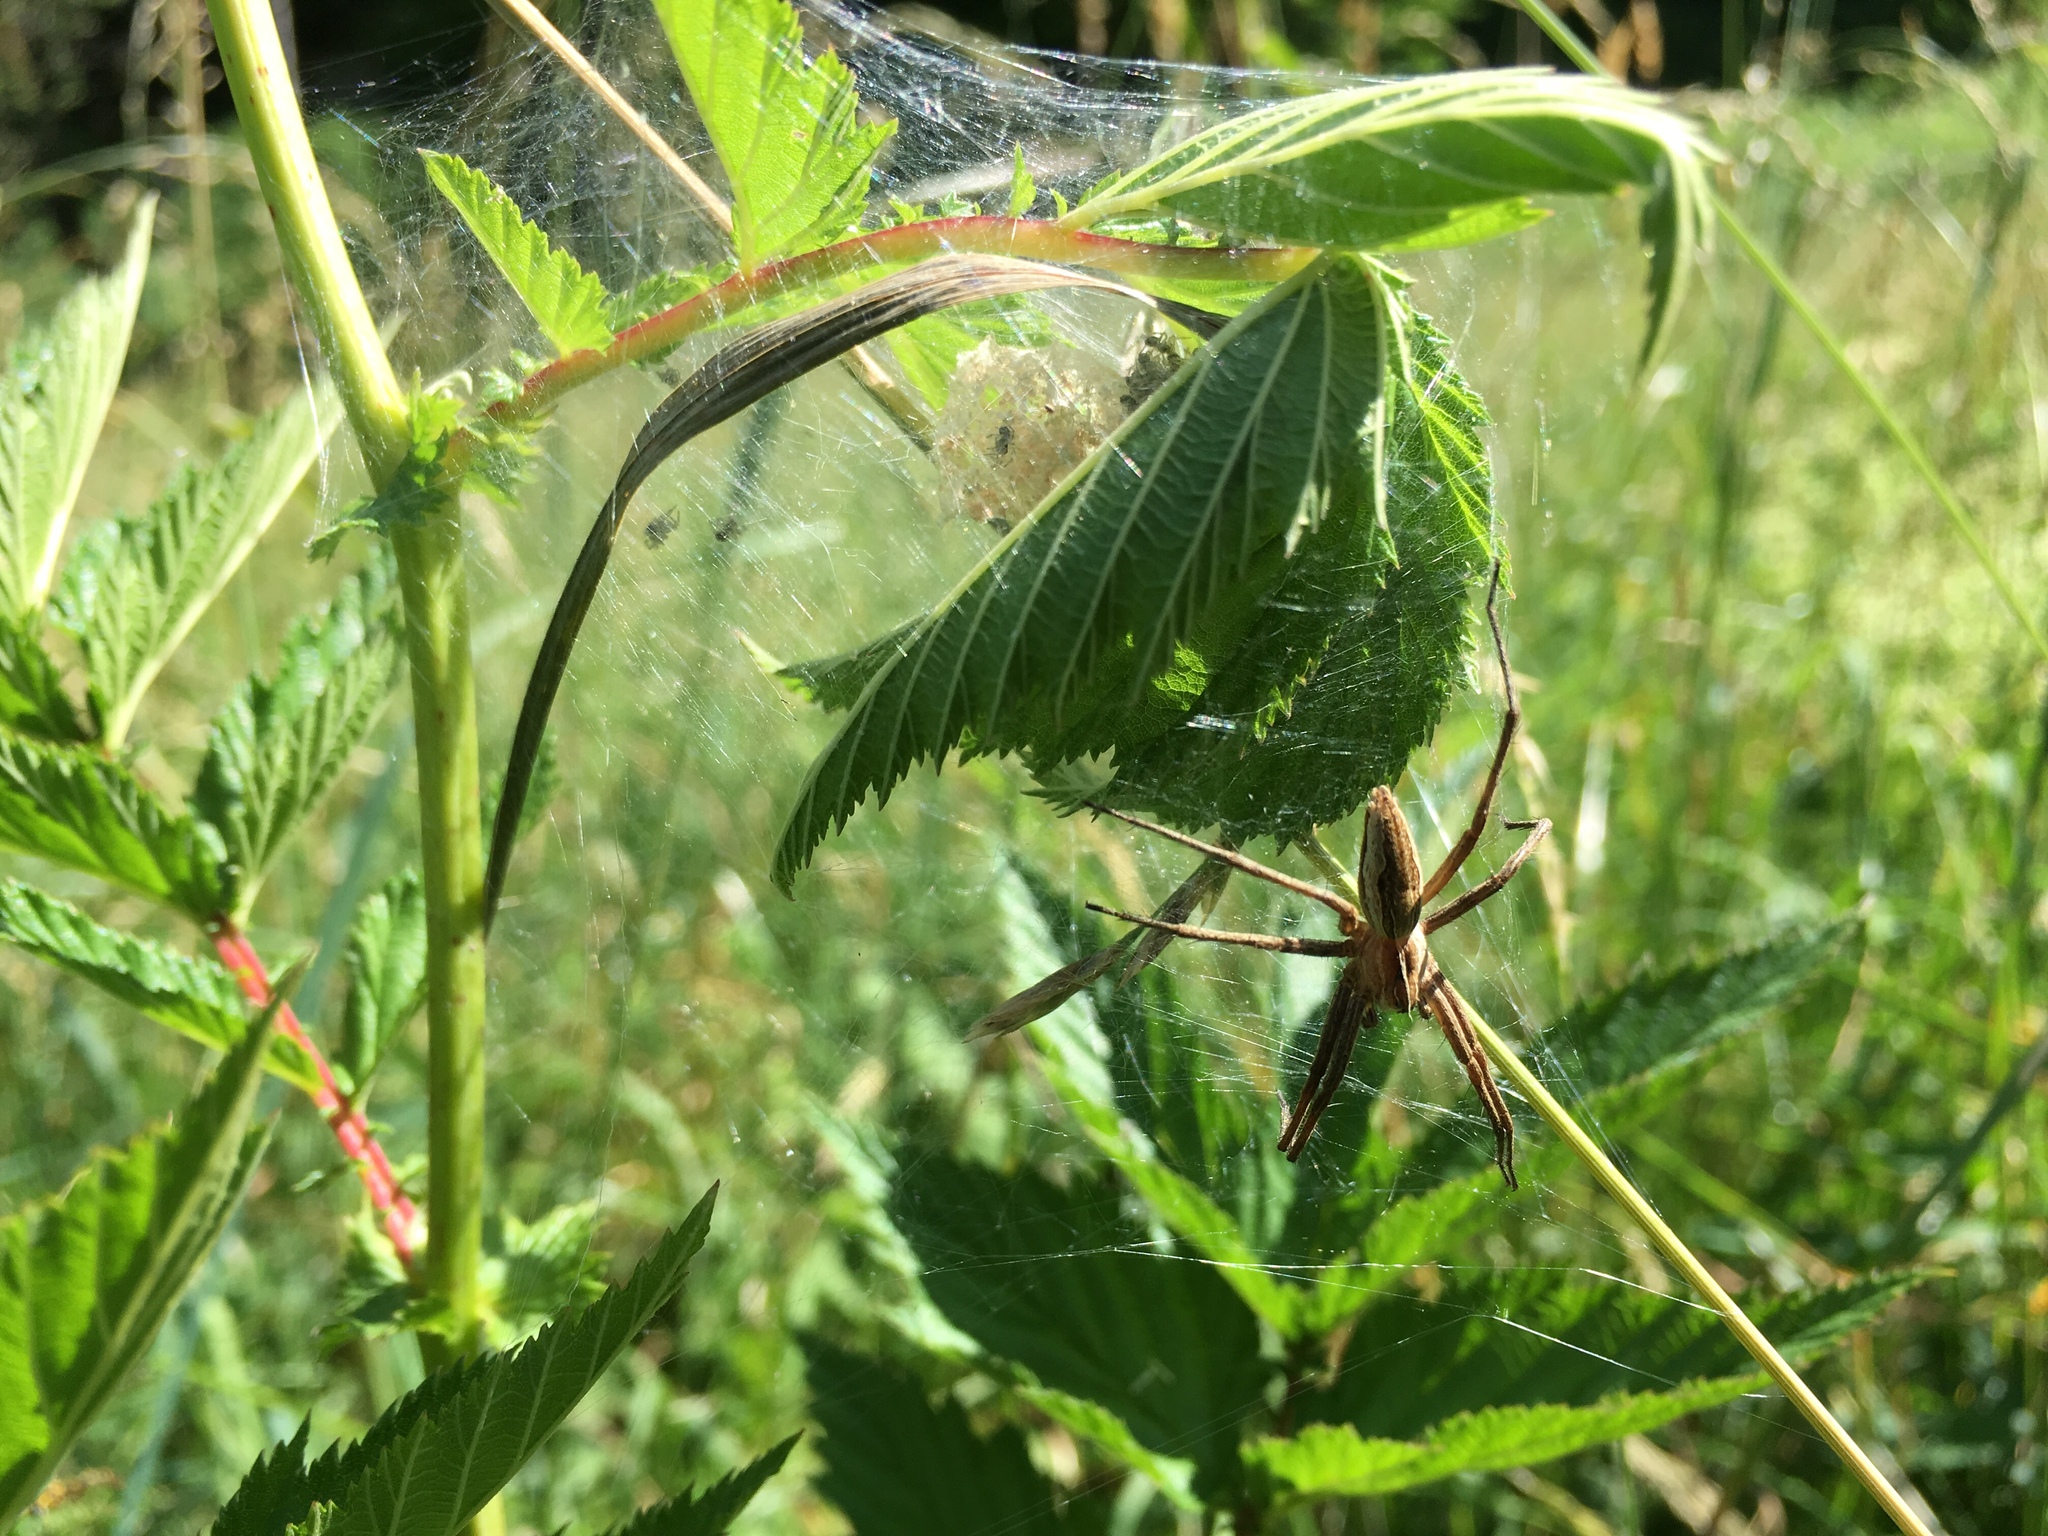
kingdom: Animalia
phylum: Arthropoda
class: Arachnida
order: Araneae
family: Pisauridae
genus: Pisaura
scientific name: Pisaura mirabilis
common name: Tent spider
